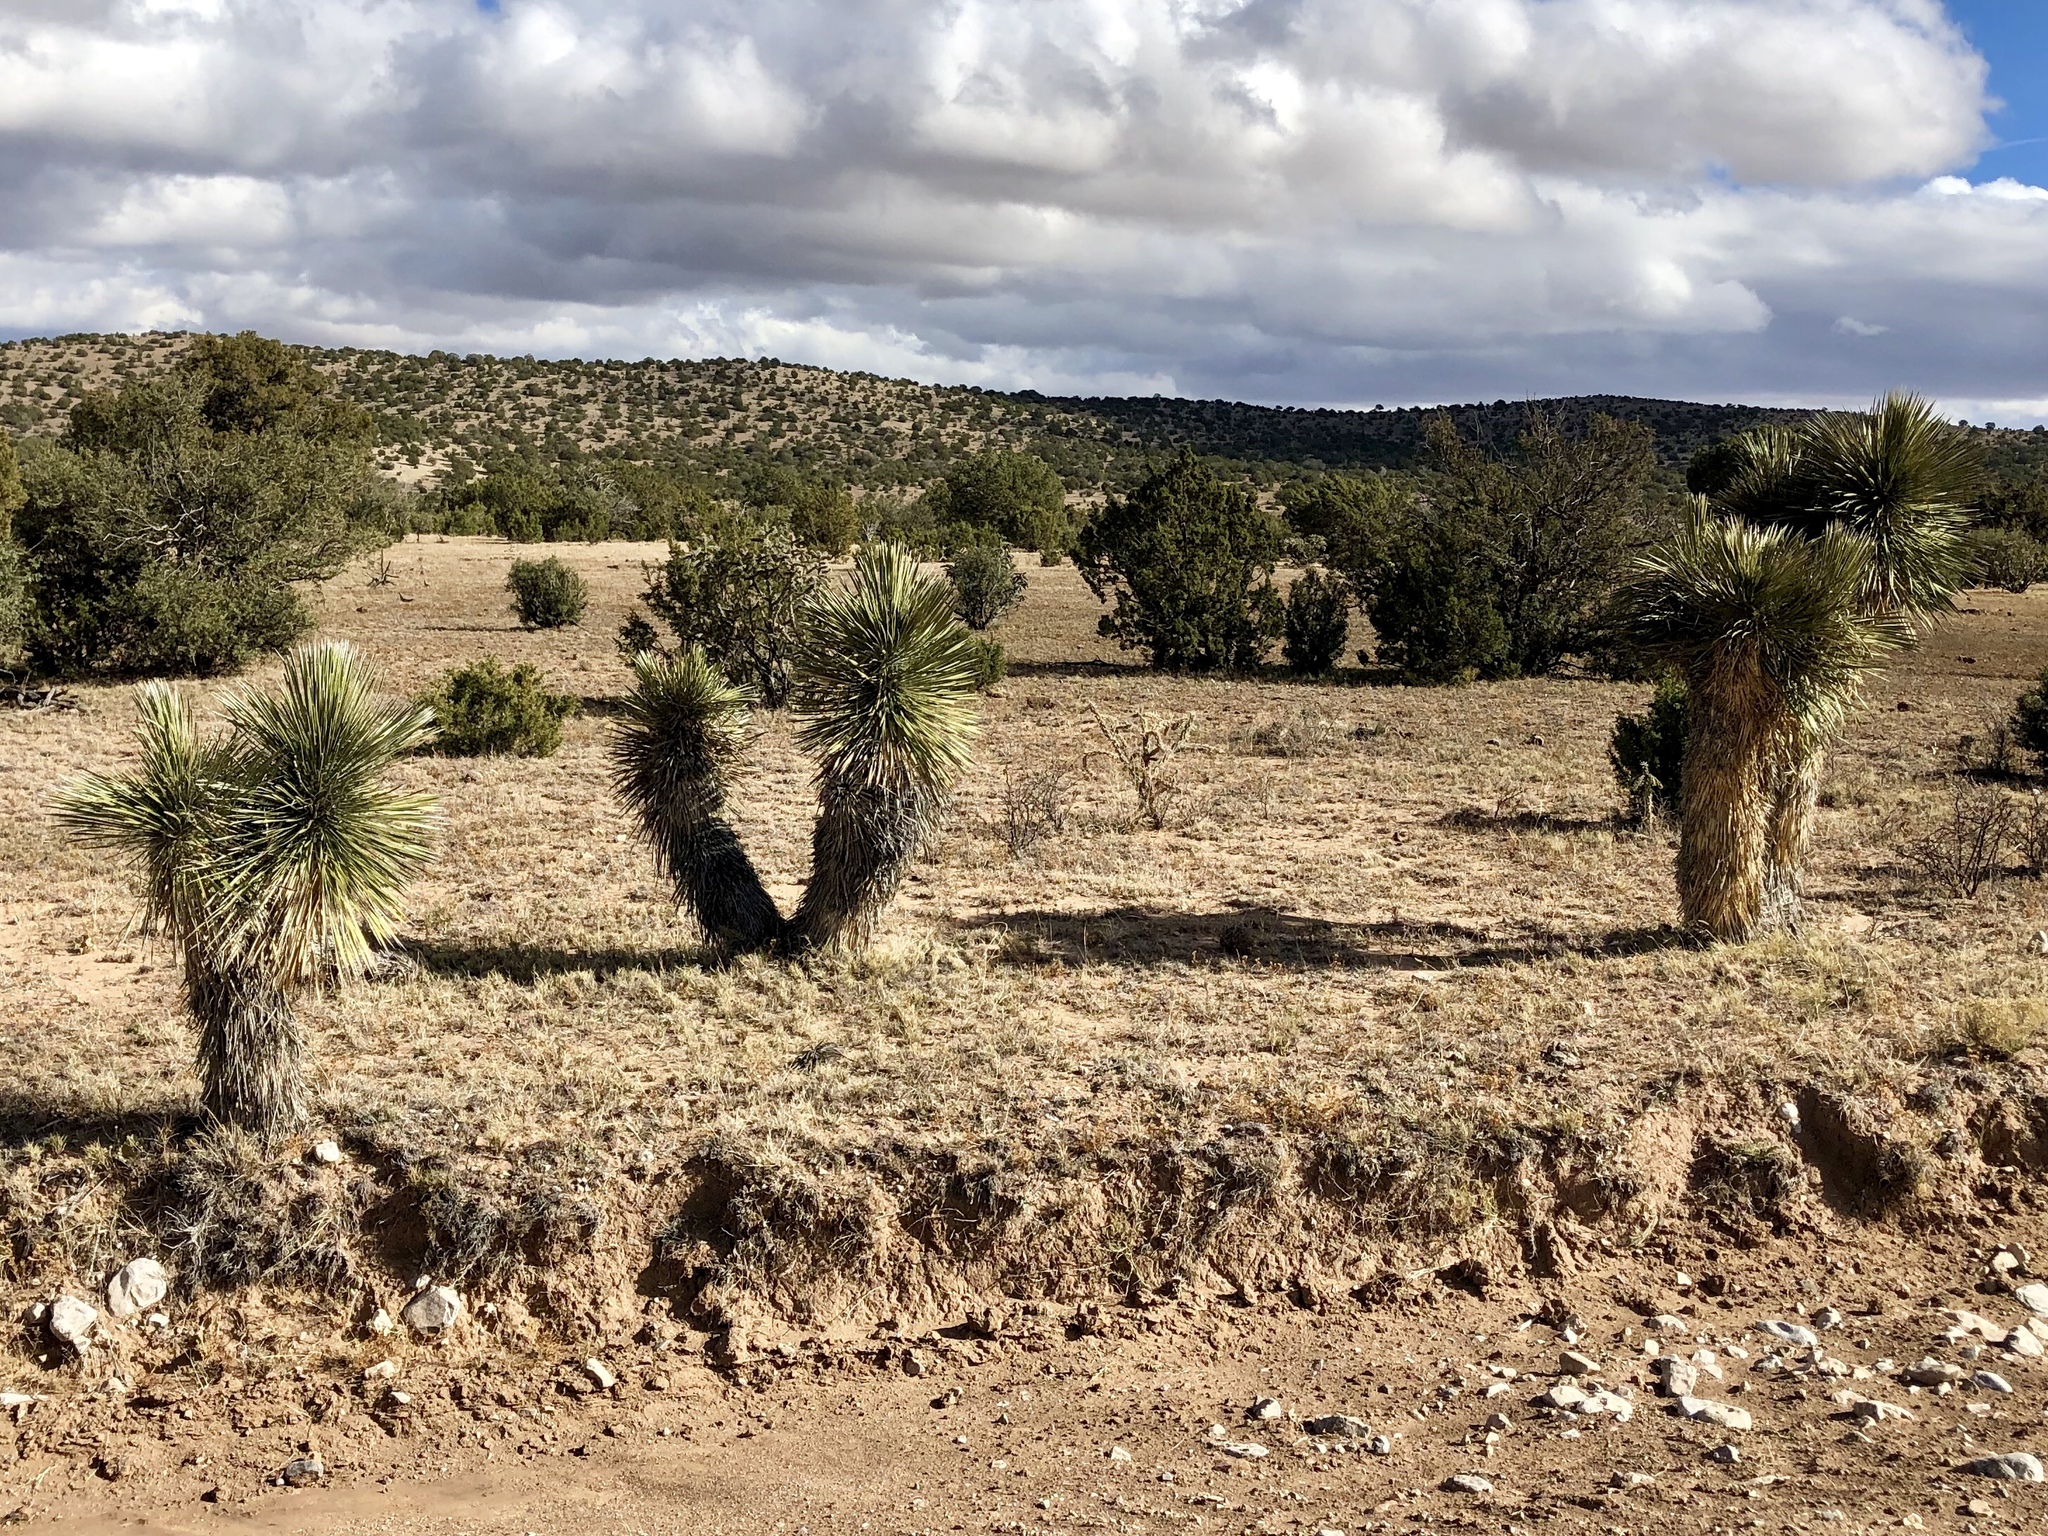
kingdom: Plantae
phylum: Tracheophyta
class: Liliopsida
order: Asparagales
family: Asparagaceae
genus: Yucca
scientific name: Yucca elata
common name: Palmella
